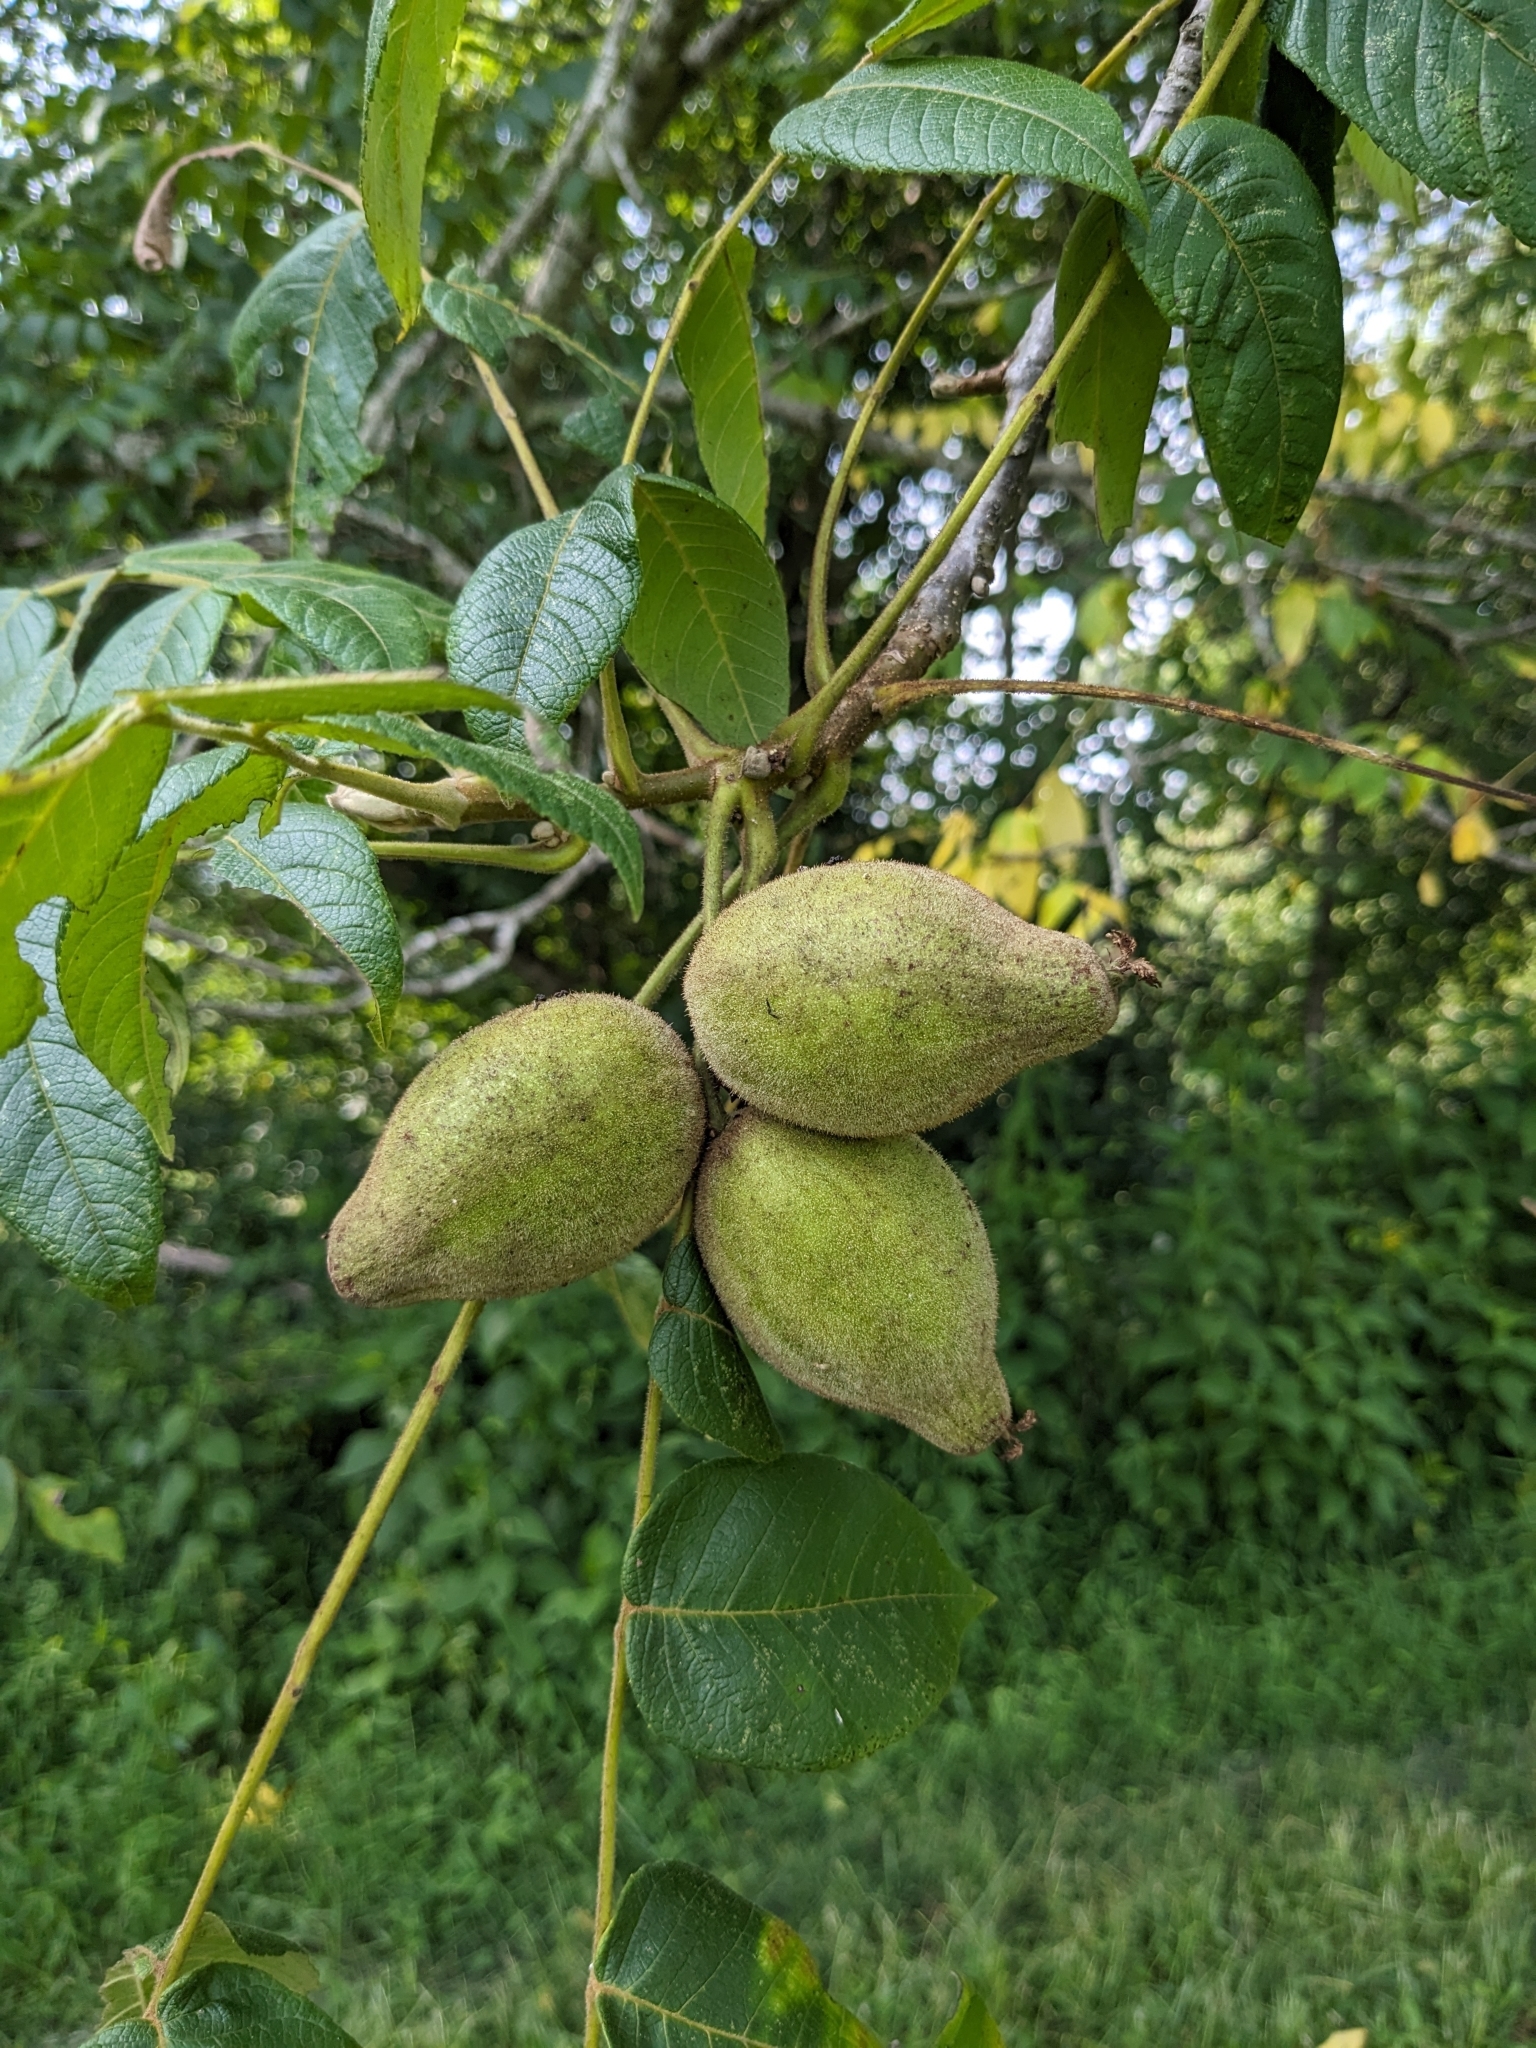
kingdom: Plantae
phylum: Tracheophyta
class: Magnoliopsida
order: Fagales
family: Juglandaceae
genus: Juglans
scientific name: Juglans cinerea
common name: Butternut
